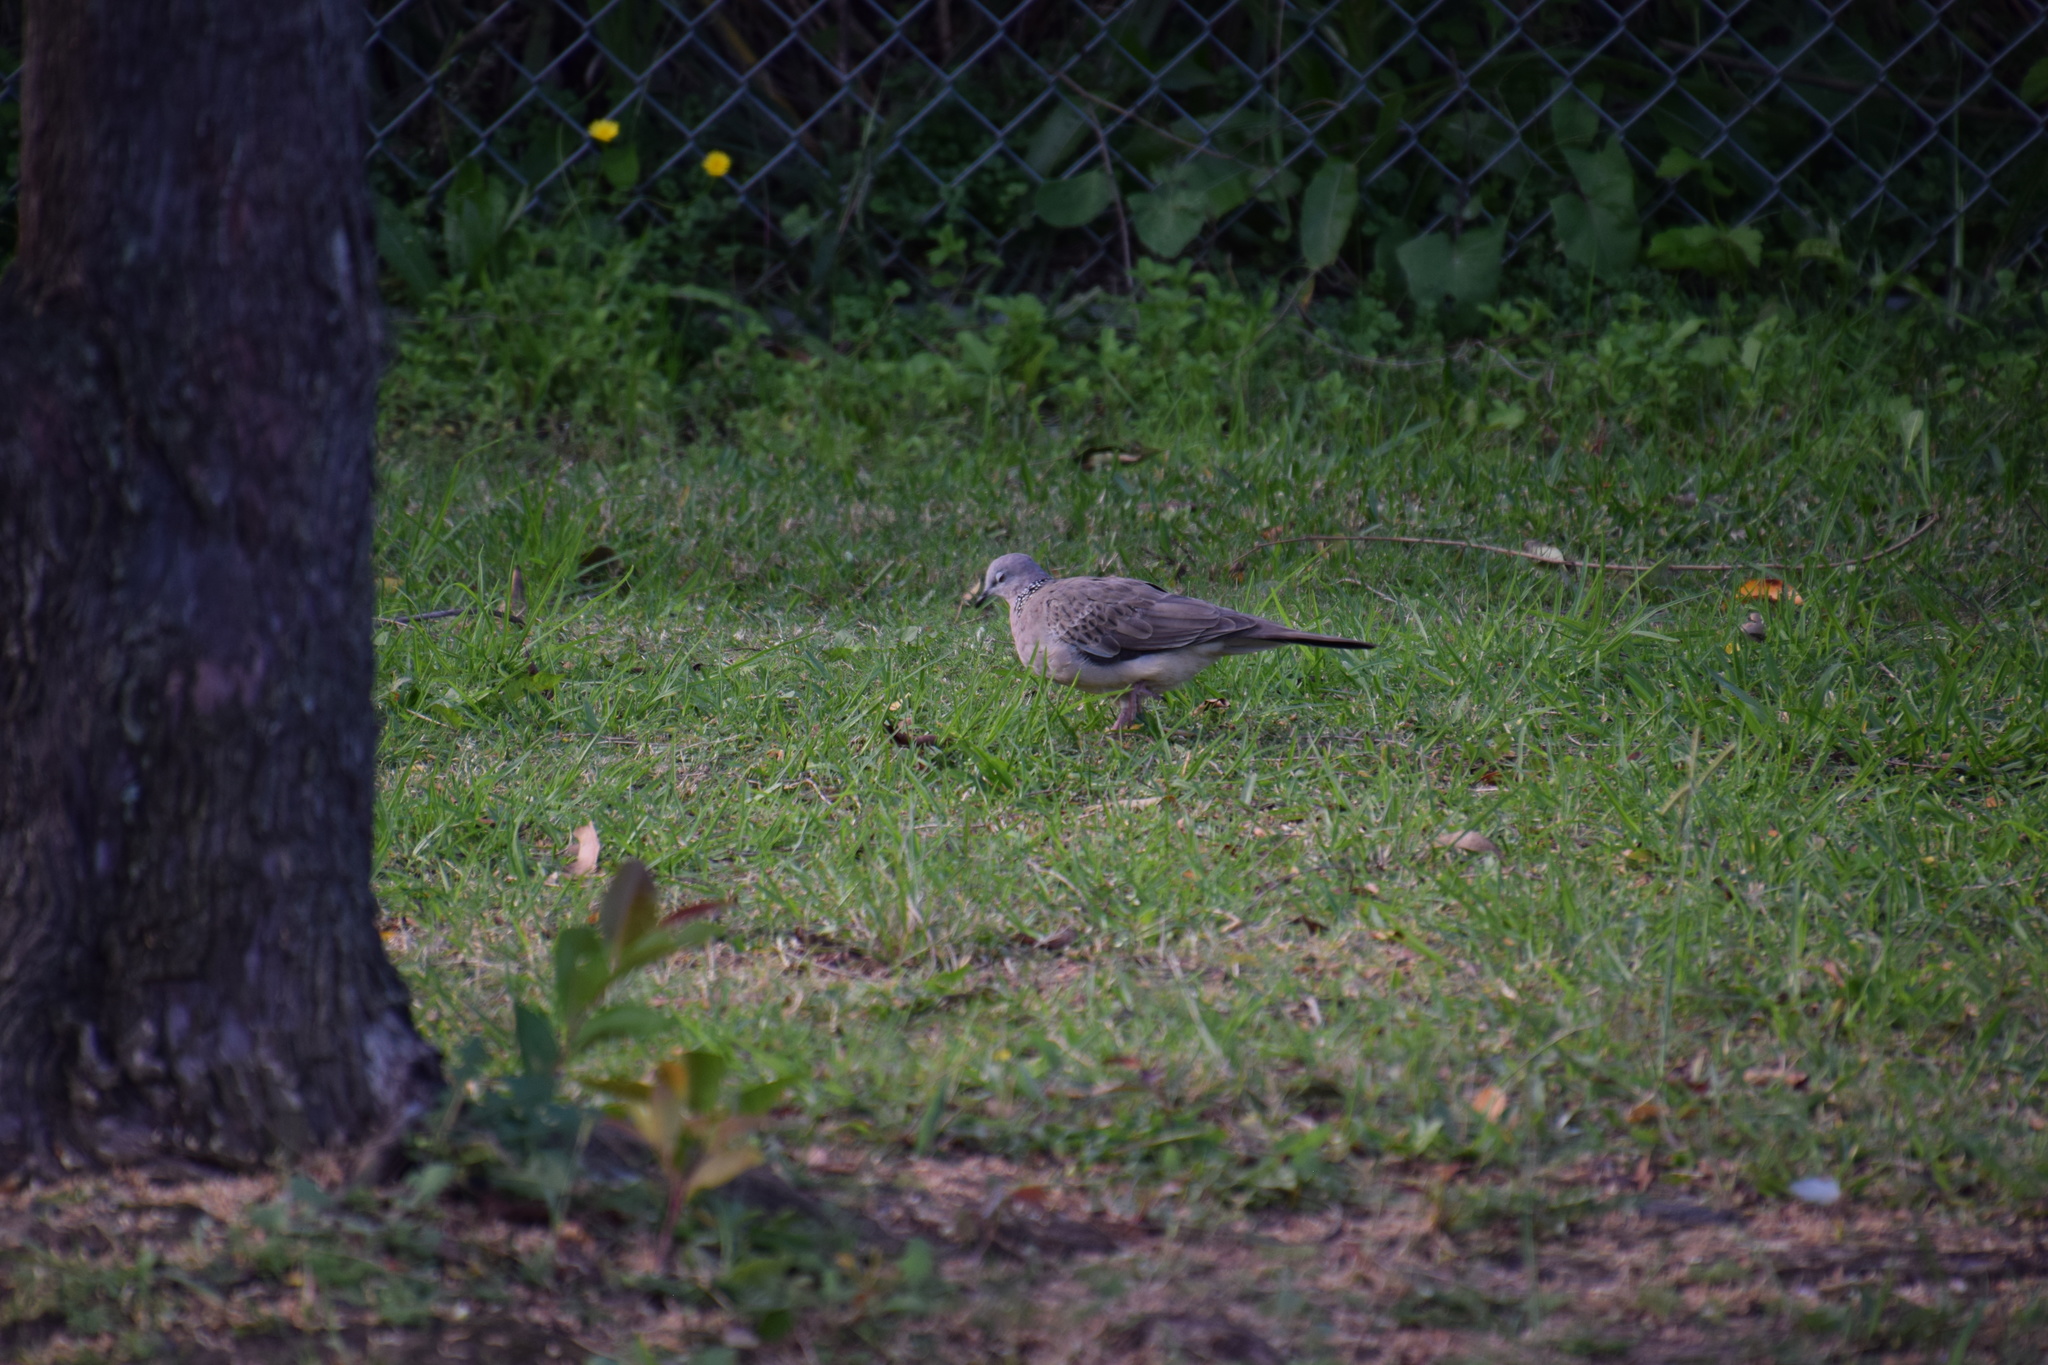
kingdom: Animalia
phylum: Chordata
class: Aves
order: Columbiformes
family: Columbidae
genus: Spilopelia
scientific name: Spilopelia chinensis
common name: Spotted dove
